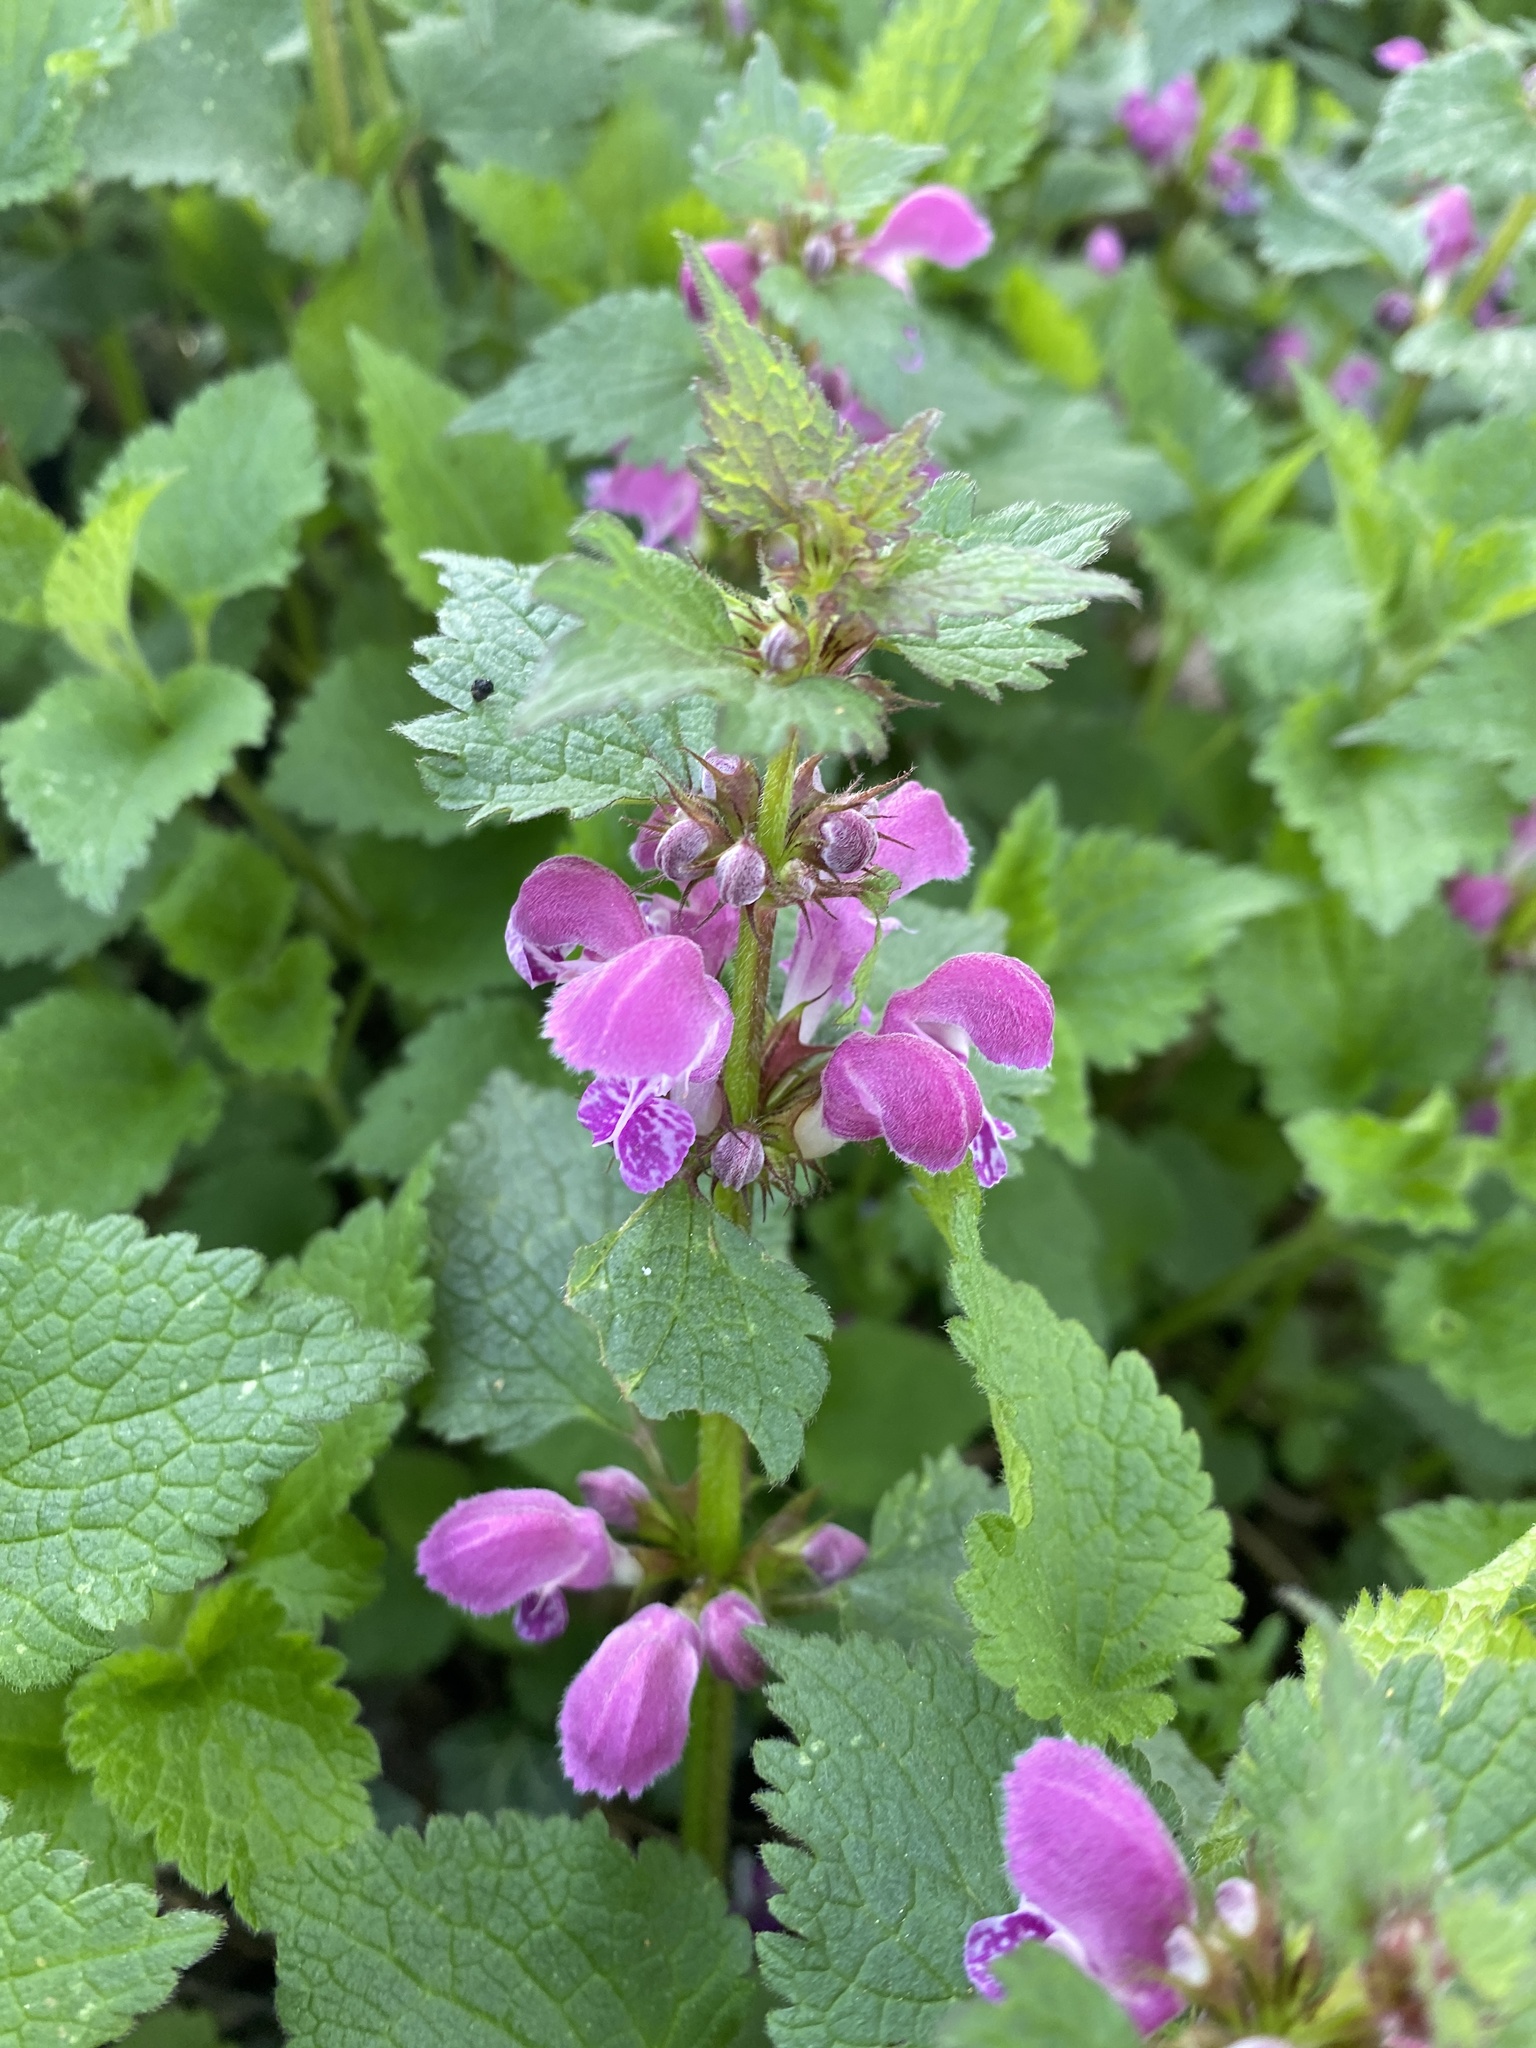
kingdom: Plantae
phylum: Tracheophyta
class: Magnoliopsida
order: Lamiales
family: Lamiaceae
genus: Lamium
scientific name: Lamium maculatum
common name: Spotted dead-nettle
